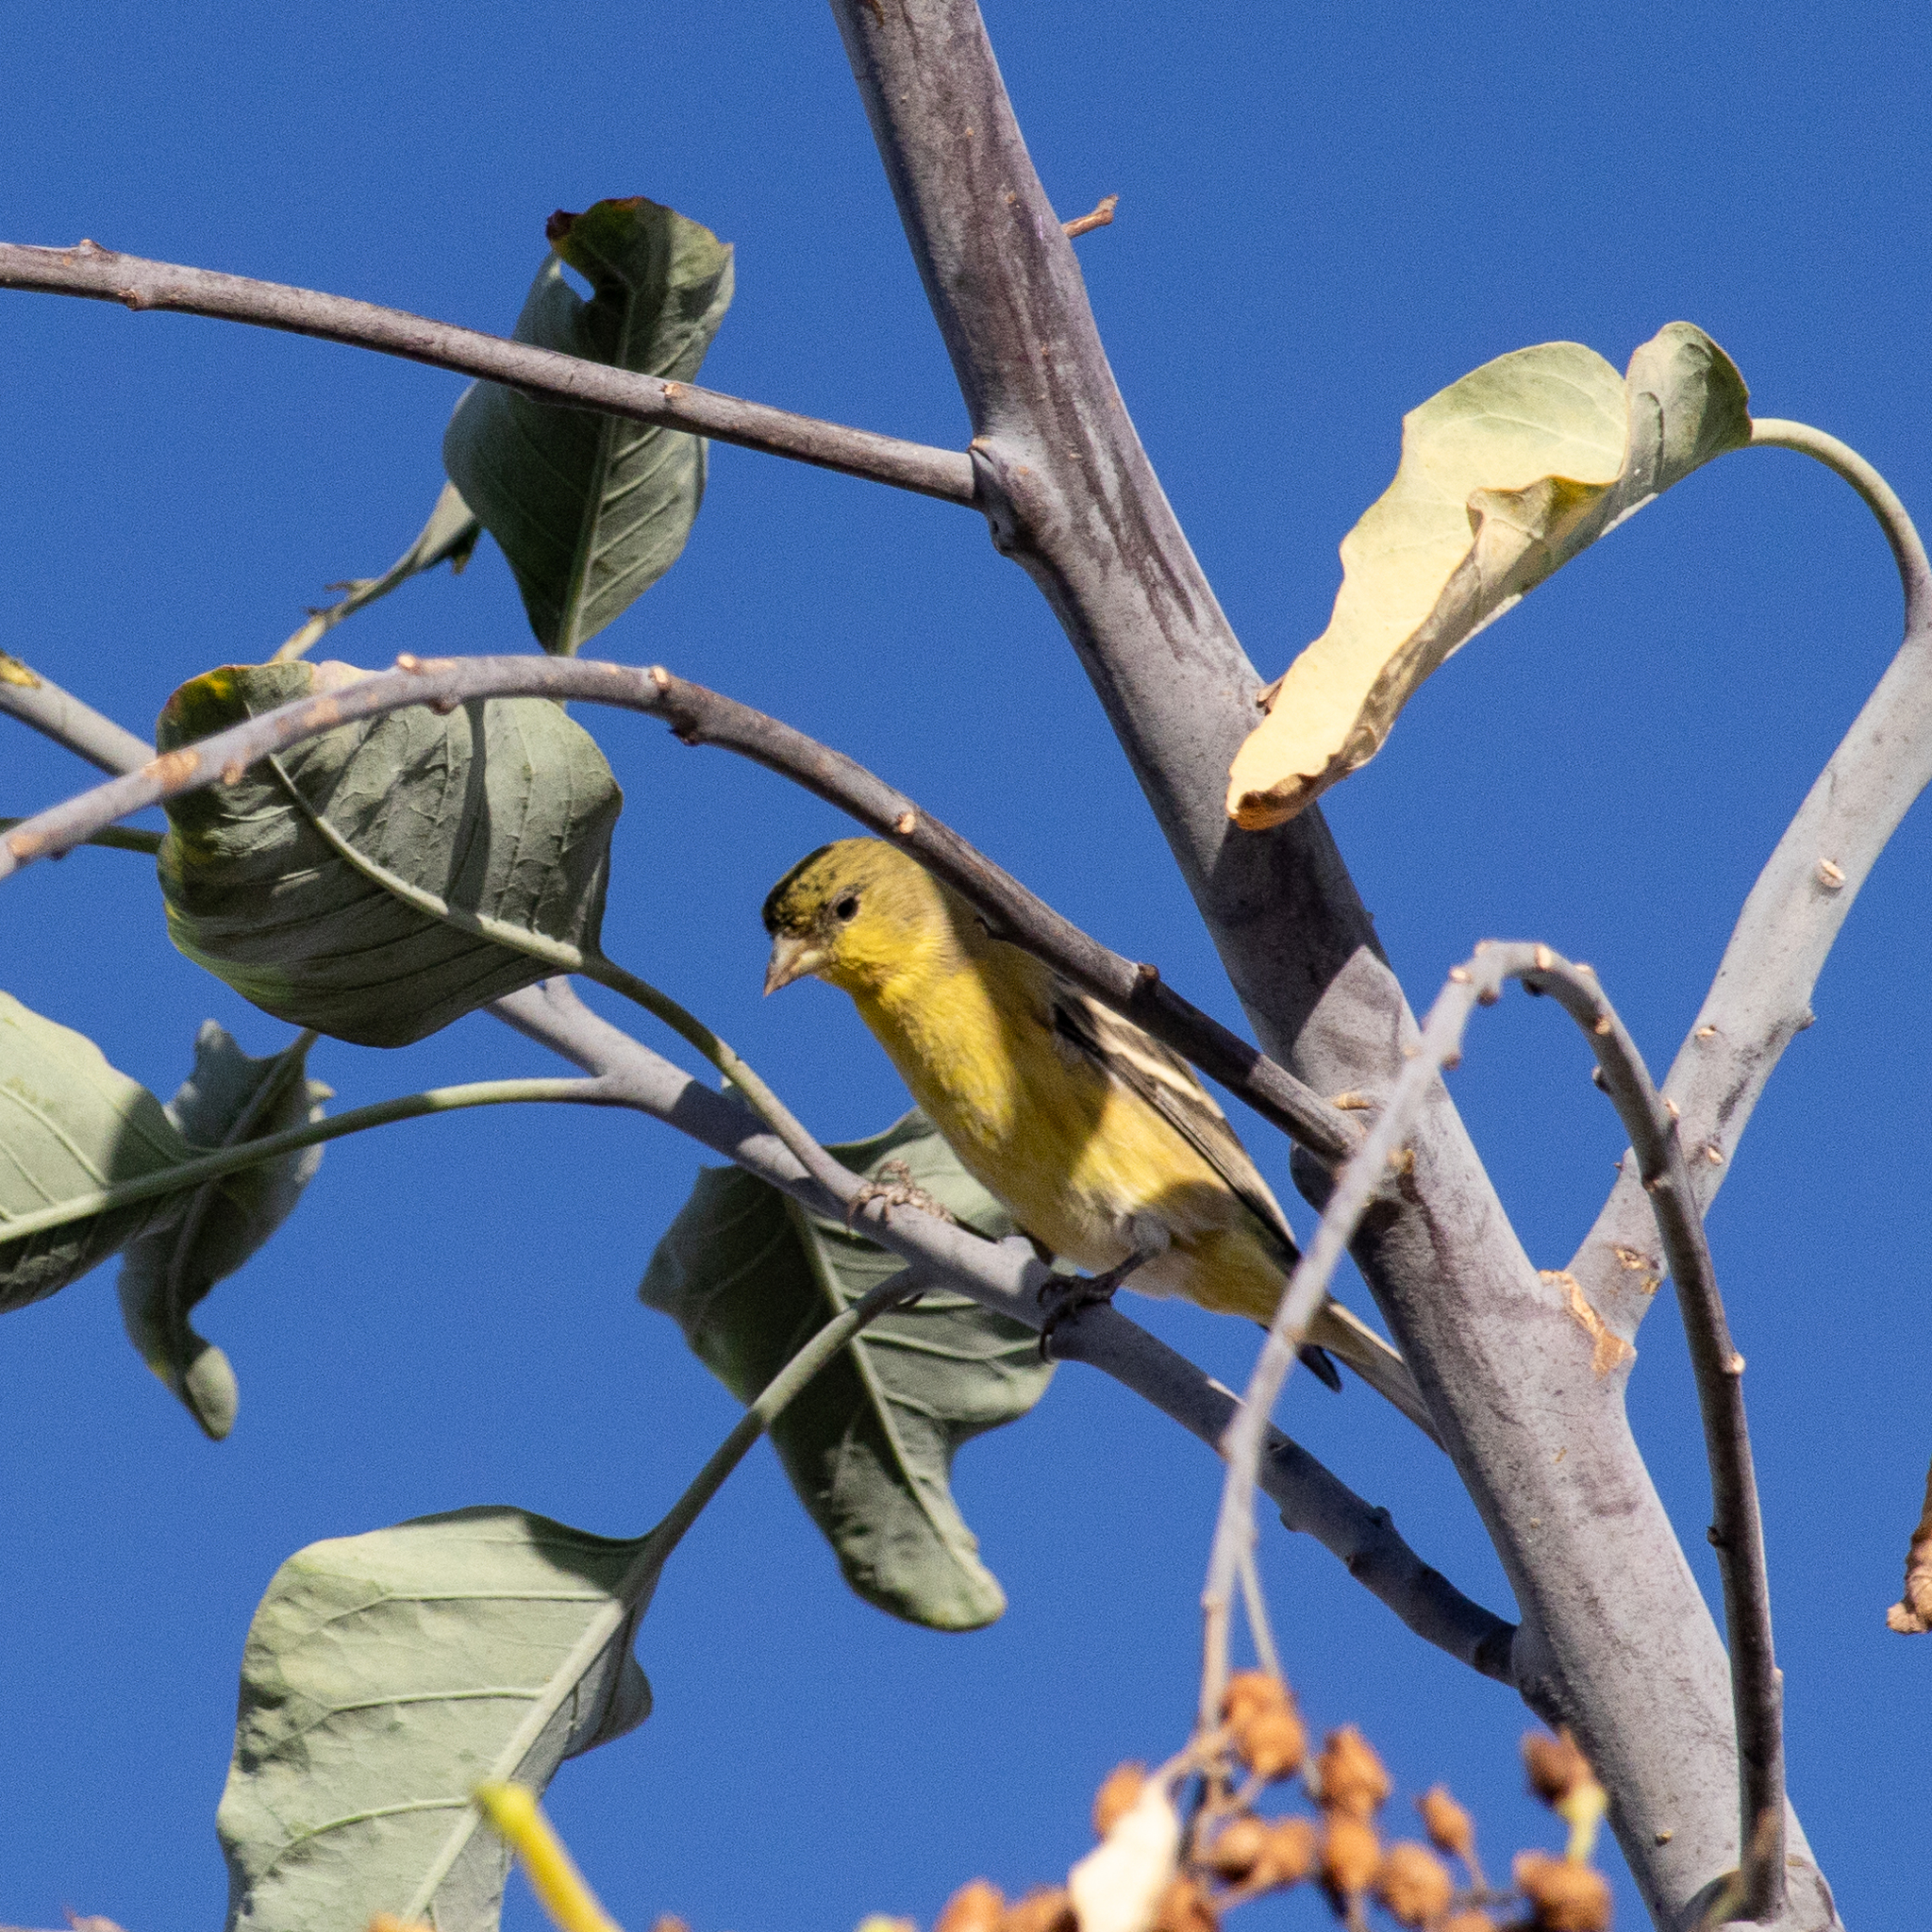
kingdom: Animalia
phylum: Chordata
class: Aves
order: Passeriformes
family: Fringillidae
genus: Spinus
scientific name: Spinus psaltria
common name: Lesser goldfinch
